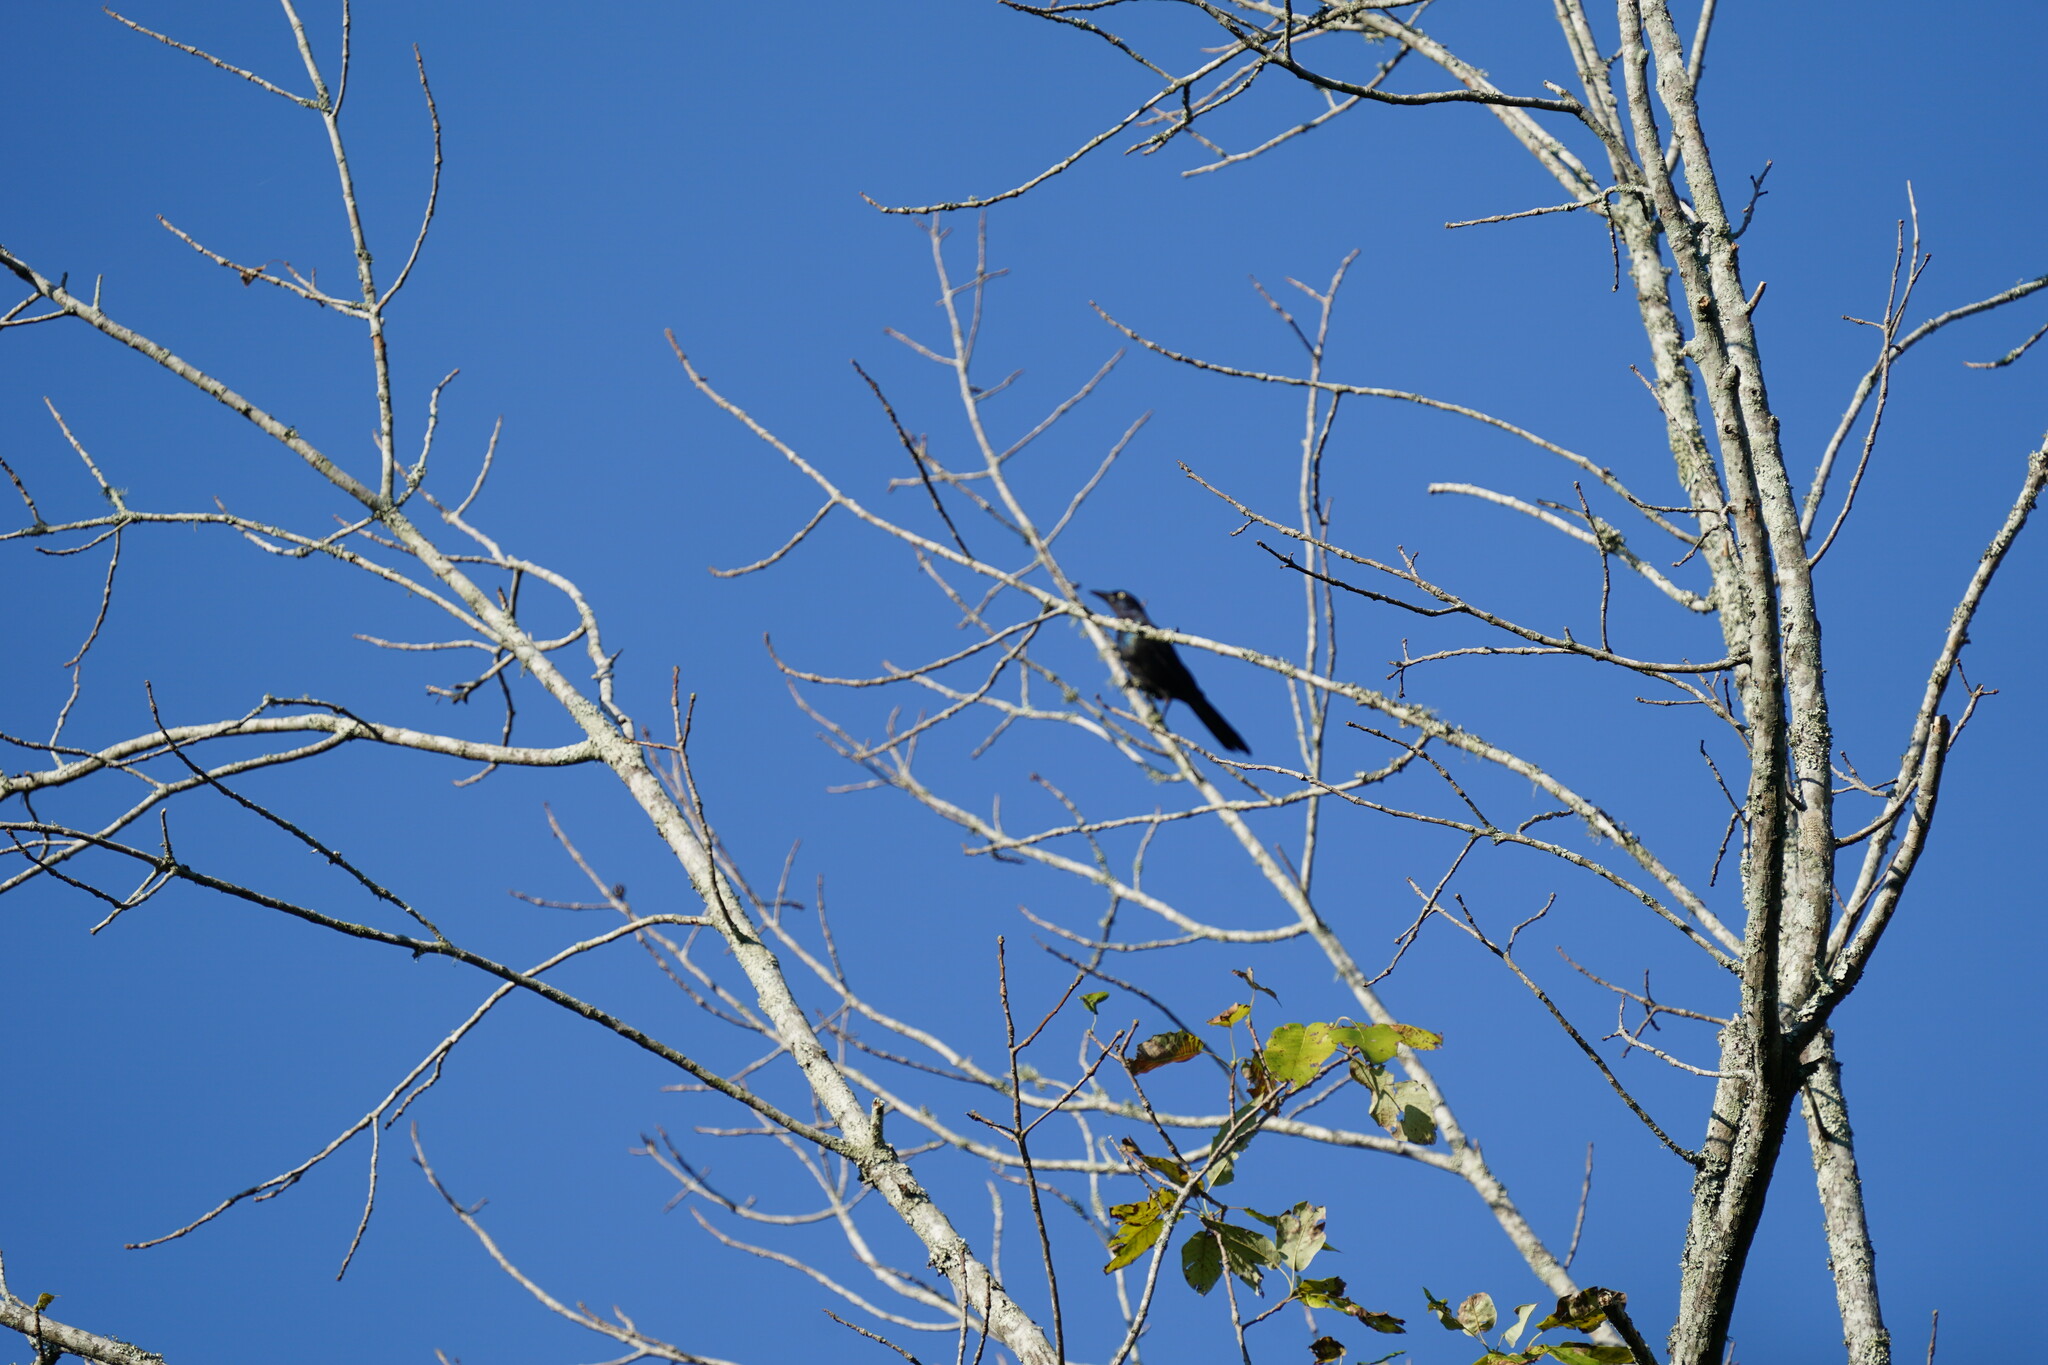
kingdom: Animalia
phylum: Chordata
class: Aves
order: Passeriformes
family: Icteridae
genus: Quiscalus
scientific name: Quiscalus quiscula
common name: Common grackle
